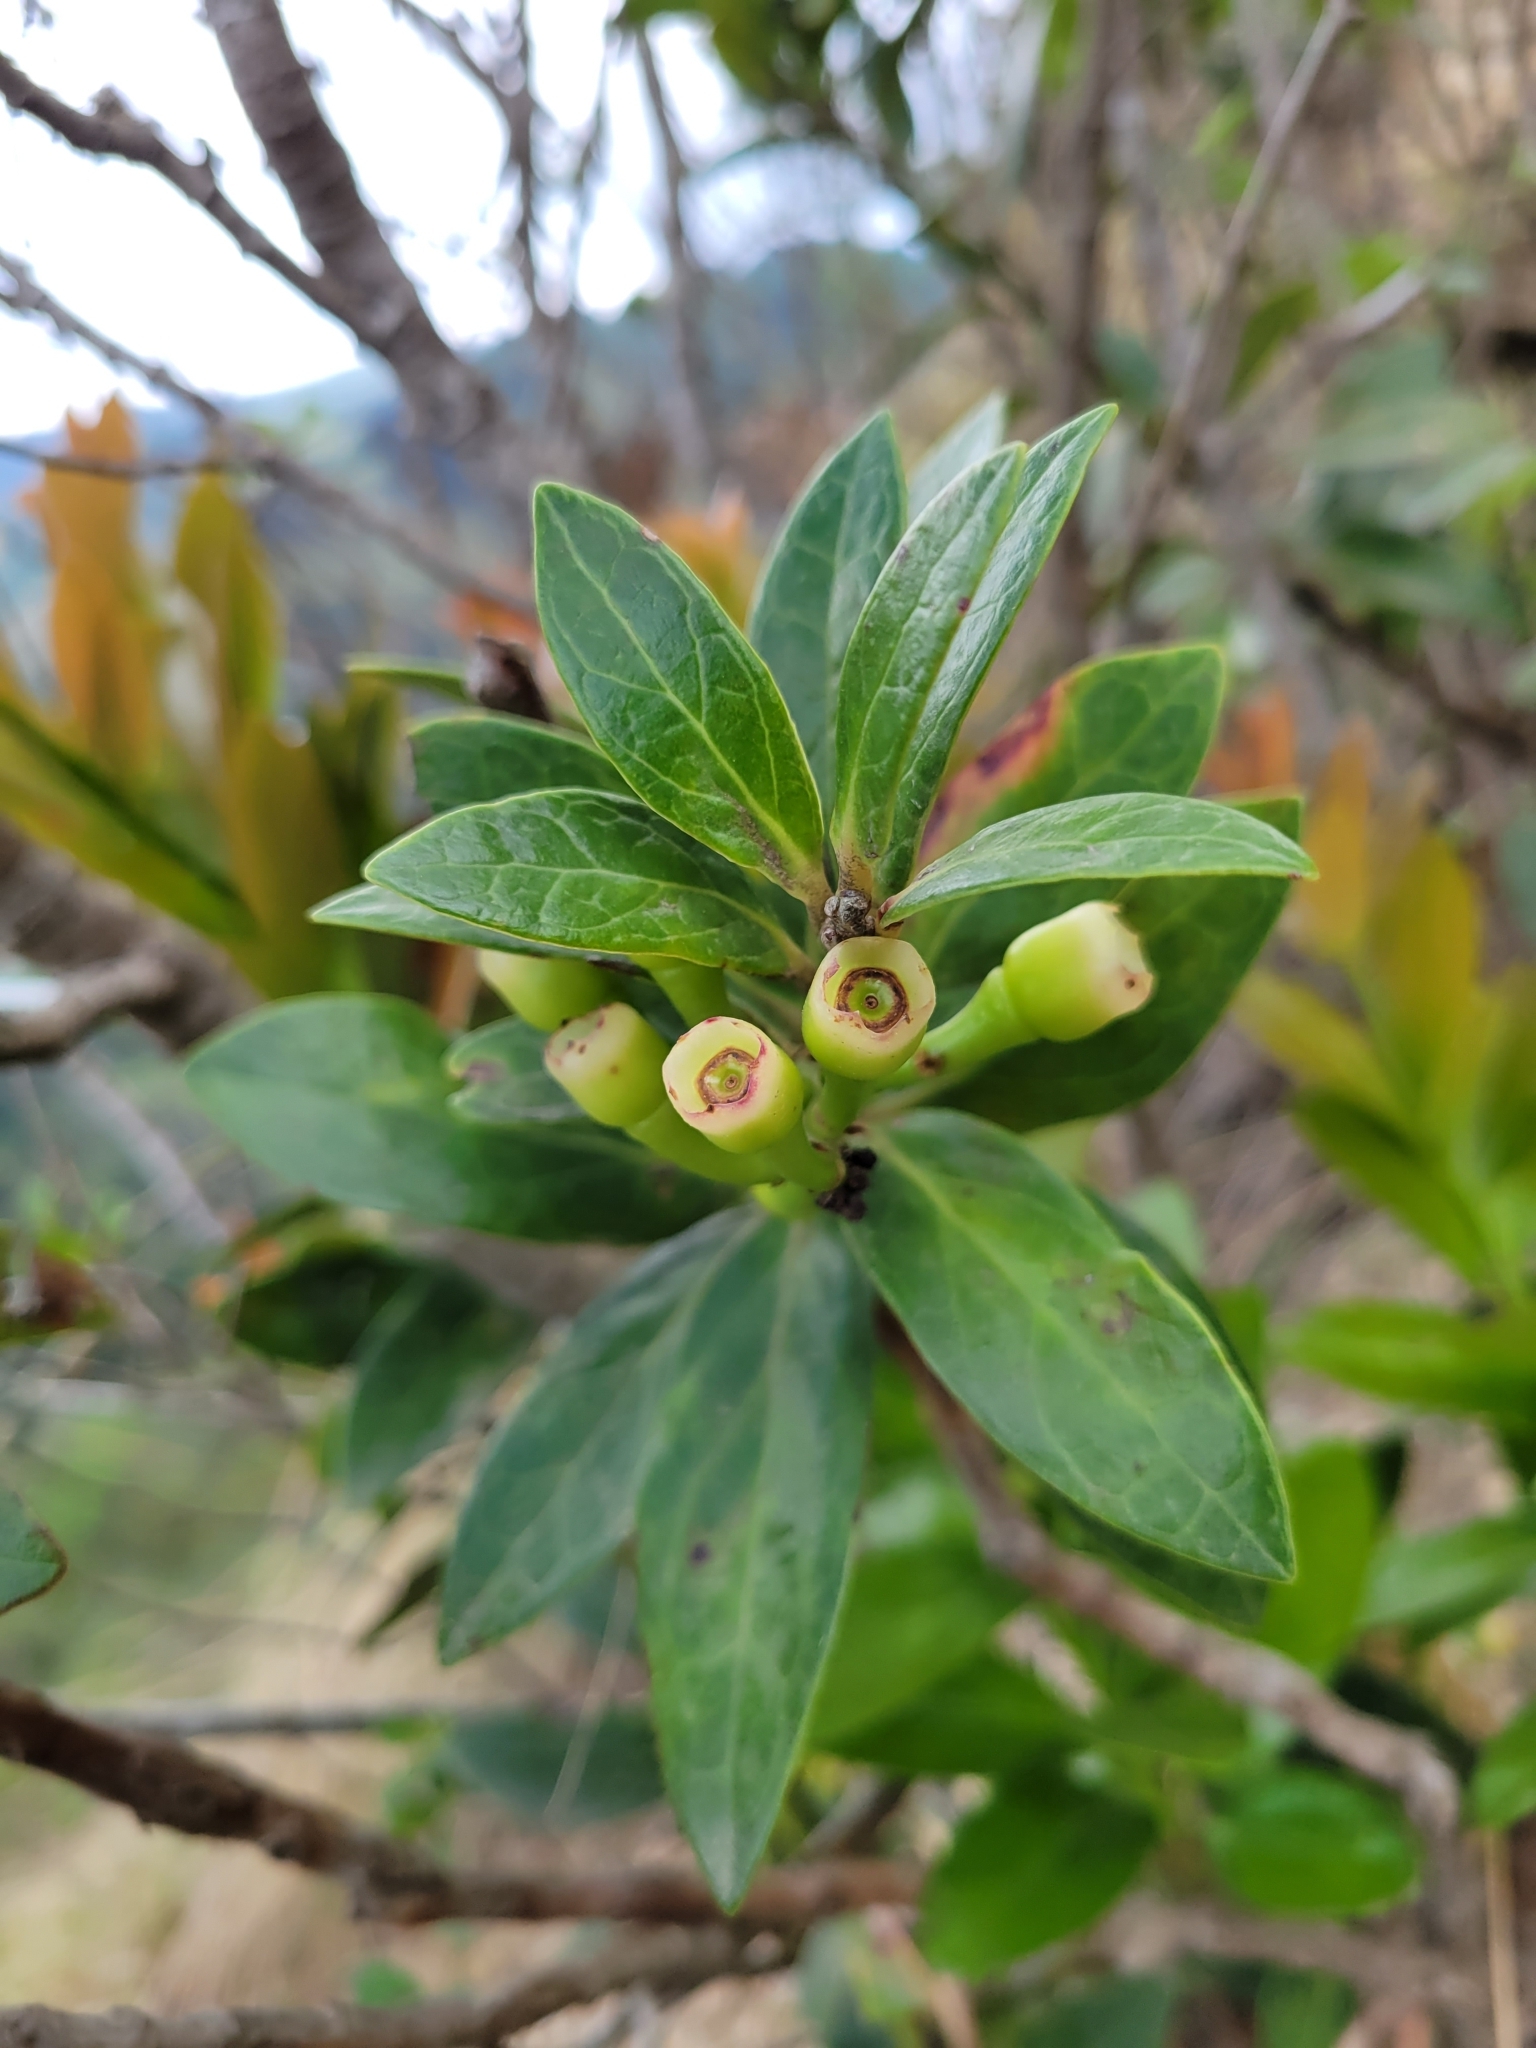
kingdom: Plantae
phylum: Tracheophyta
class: Magnoliopsida
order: Ericales
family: Ericaceae
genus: Macleania
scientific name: Macleania rupestris
